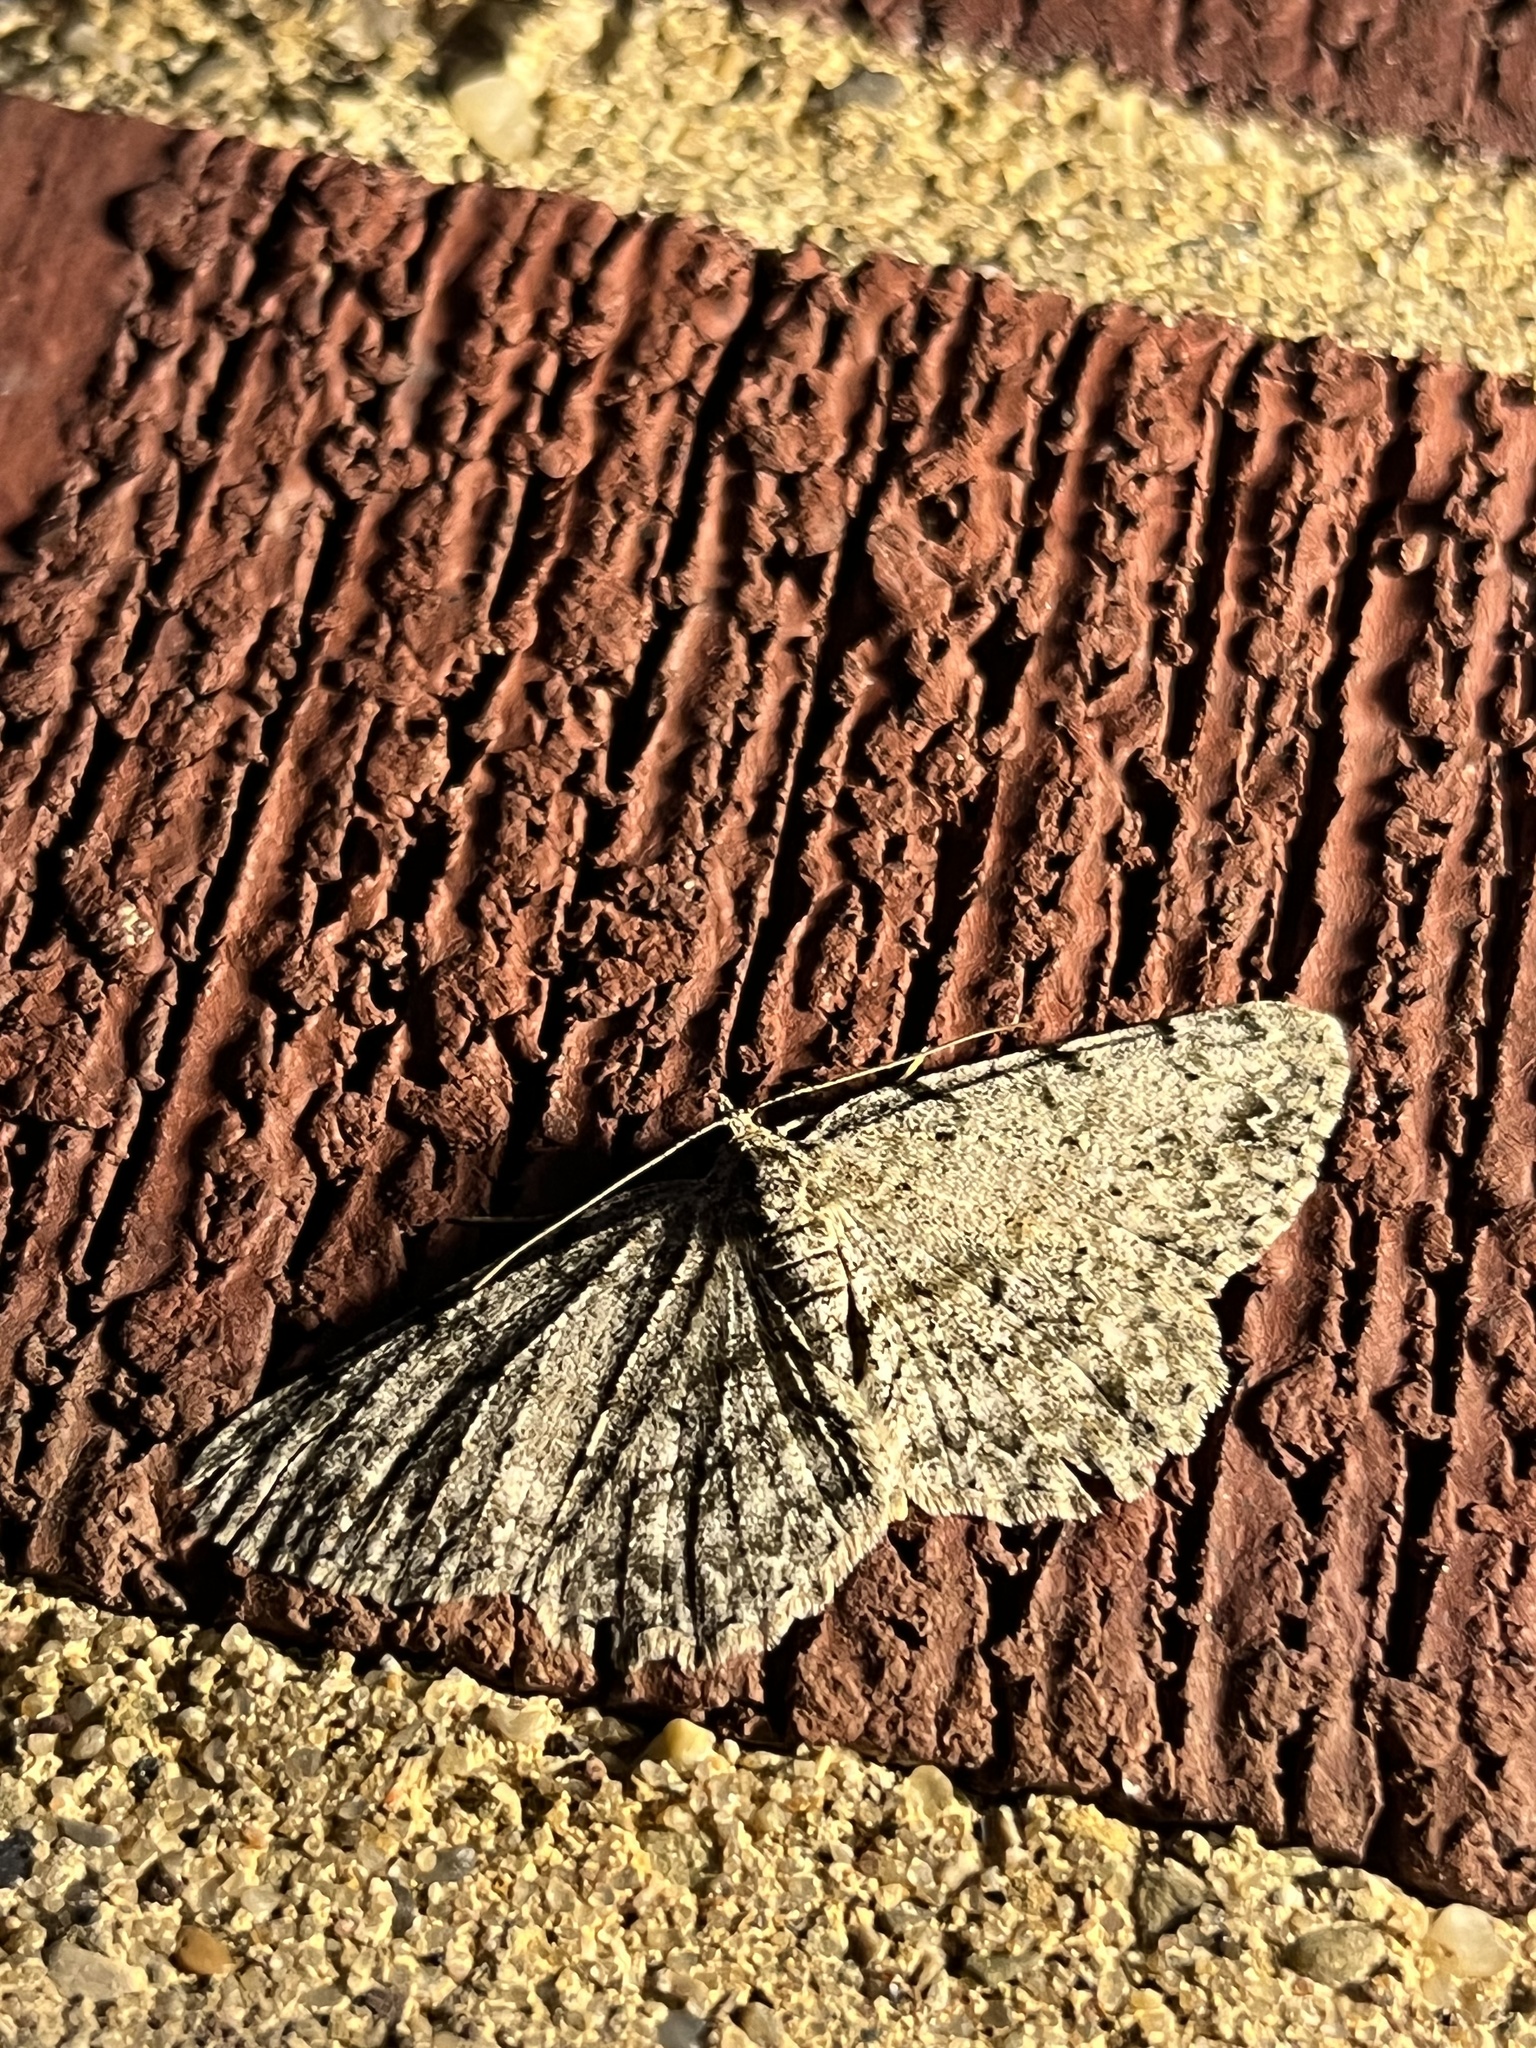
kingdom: Animalia
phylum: Arthropoda
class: Insecta
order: Lepidoptera
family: Geometridae
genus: Protoboarmia
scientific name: Protoboarmia porcelaria
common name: Porcelain gray
